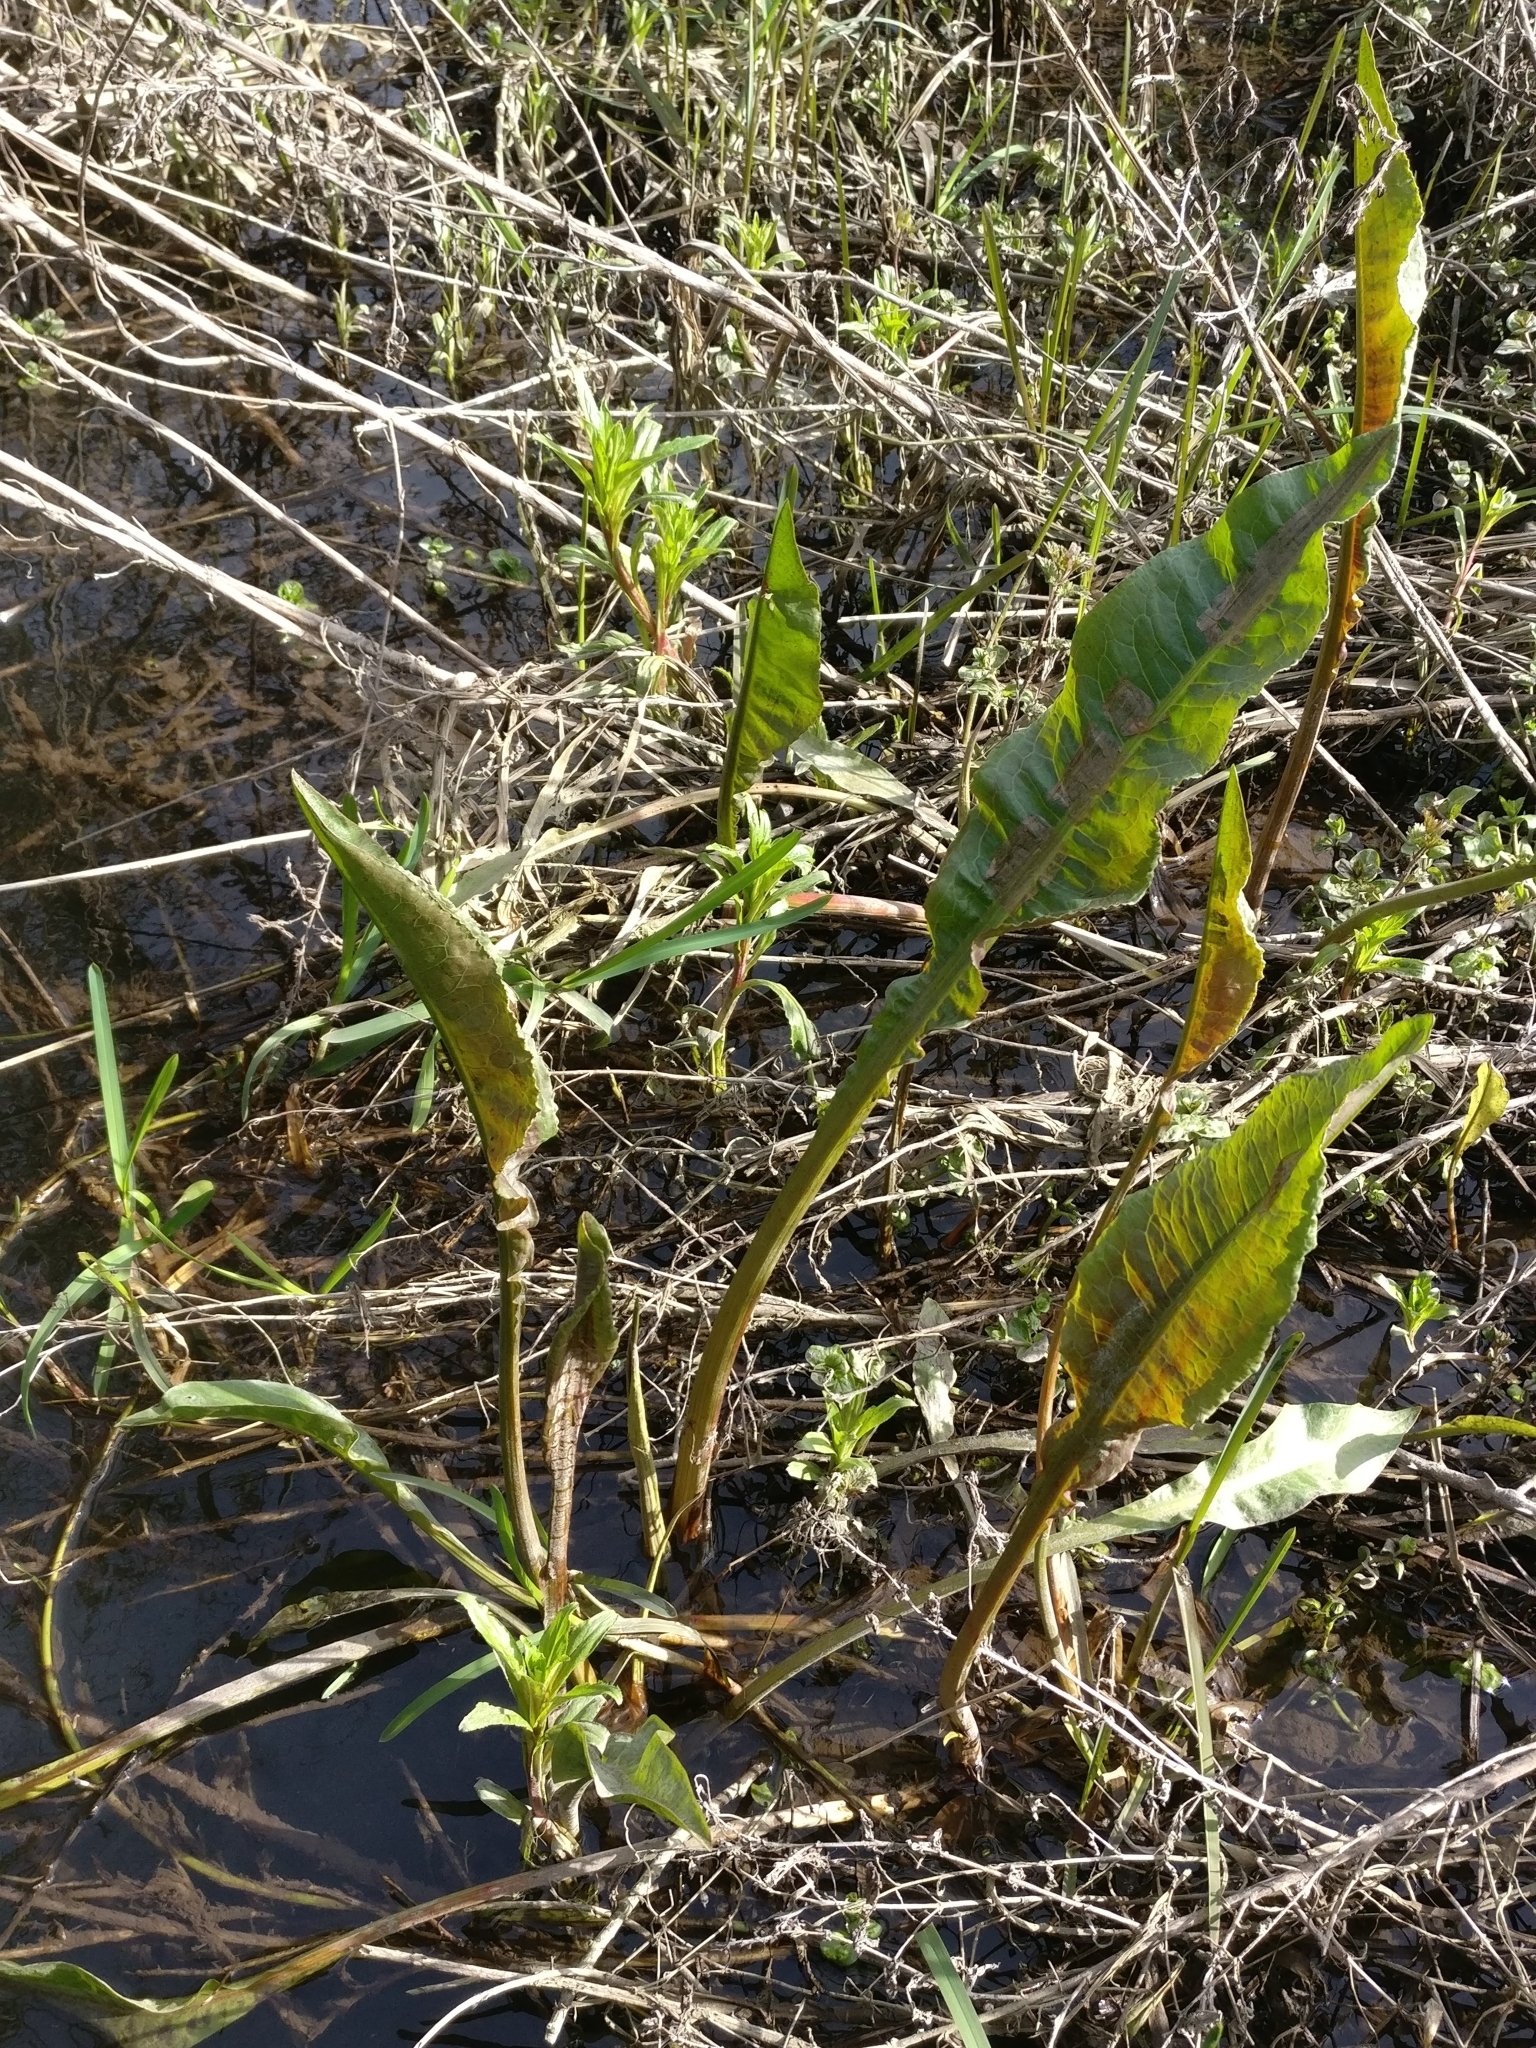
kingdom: Plantae
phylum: Tracheophyta
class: Magnoliopsida
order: Caryophyllales
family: Polygonaceae
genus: Rumex
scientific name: Rumex hydrolapathum
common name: Water dock
